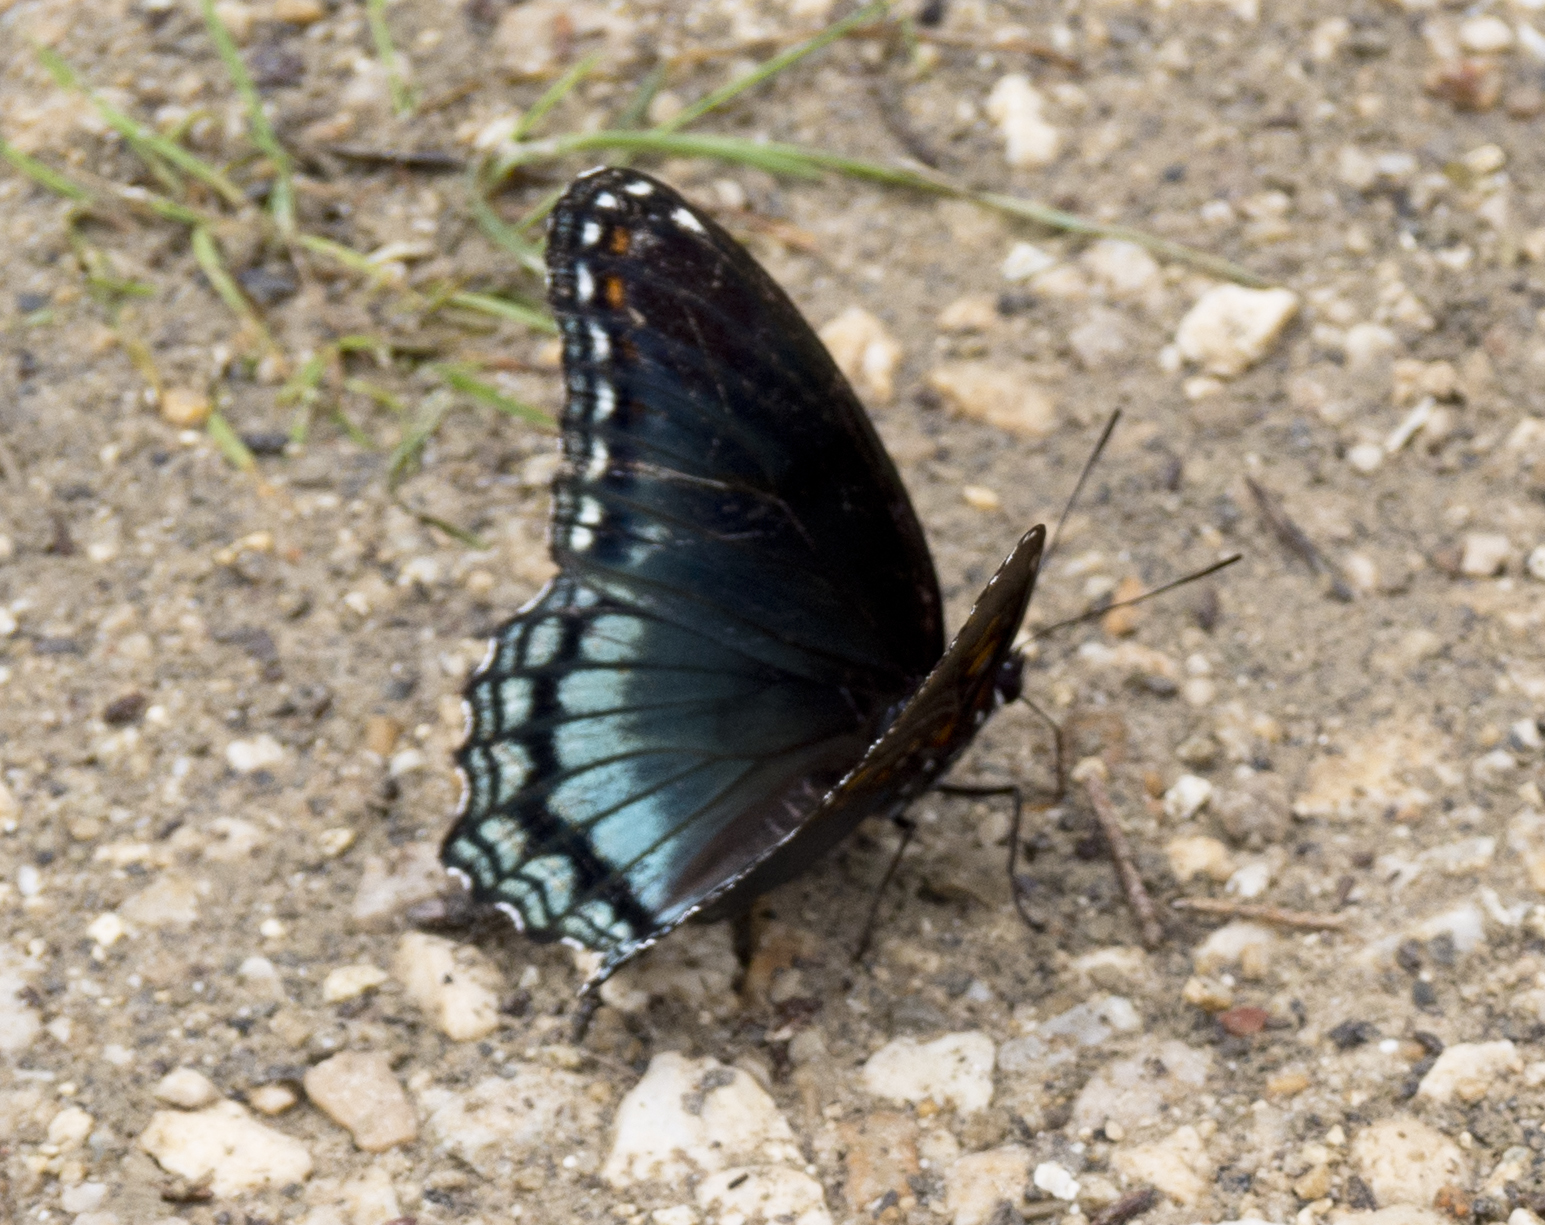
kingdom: Animalia
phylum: Arthropoda
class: Insecta
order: Lepidoptera
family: Nymphalidae
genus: Limenitis
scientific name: Limenitis astyanax
